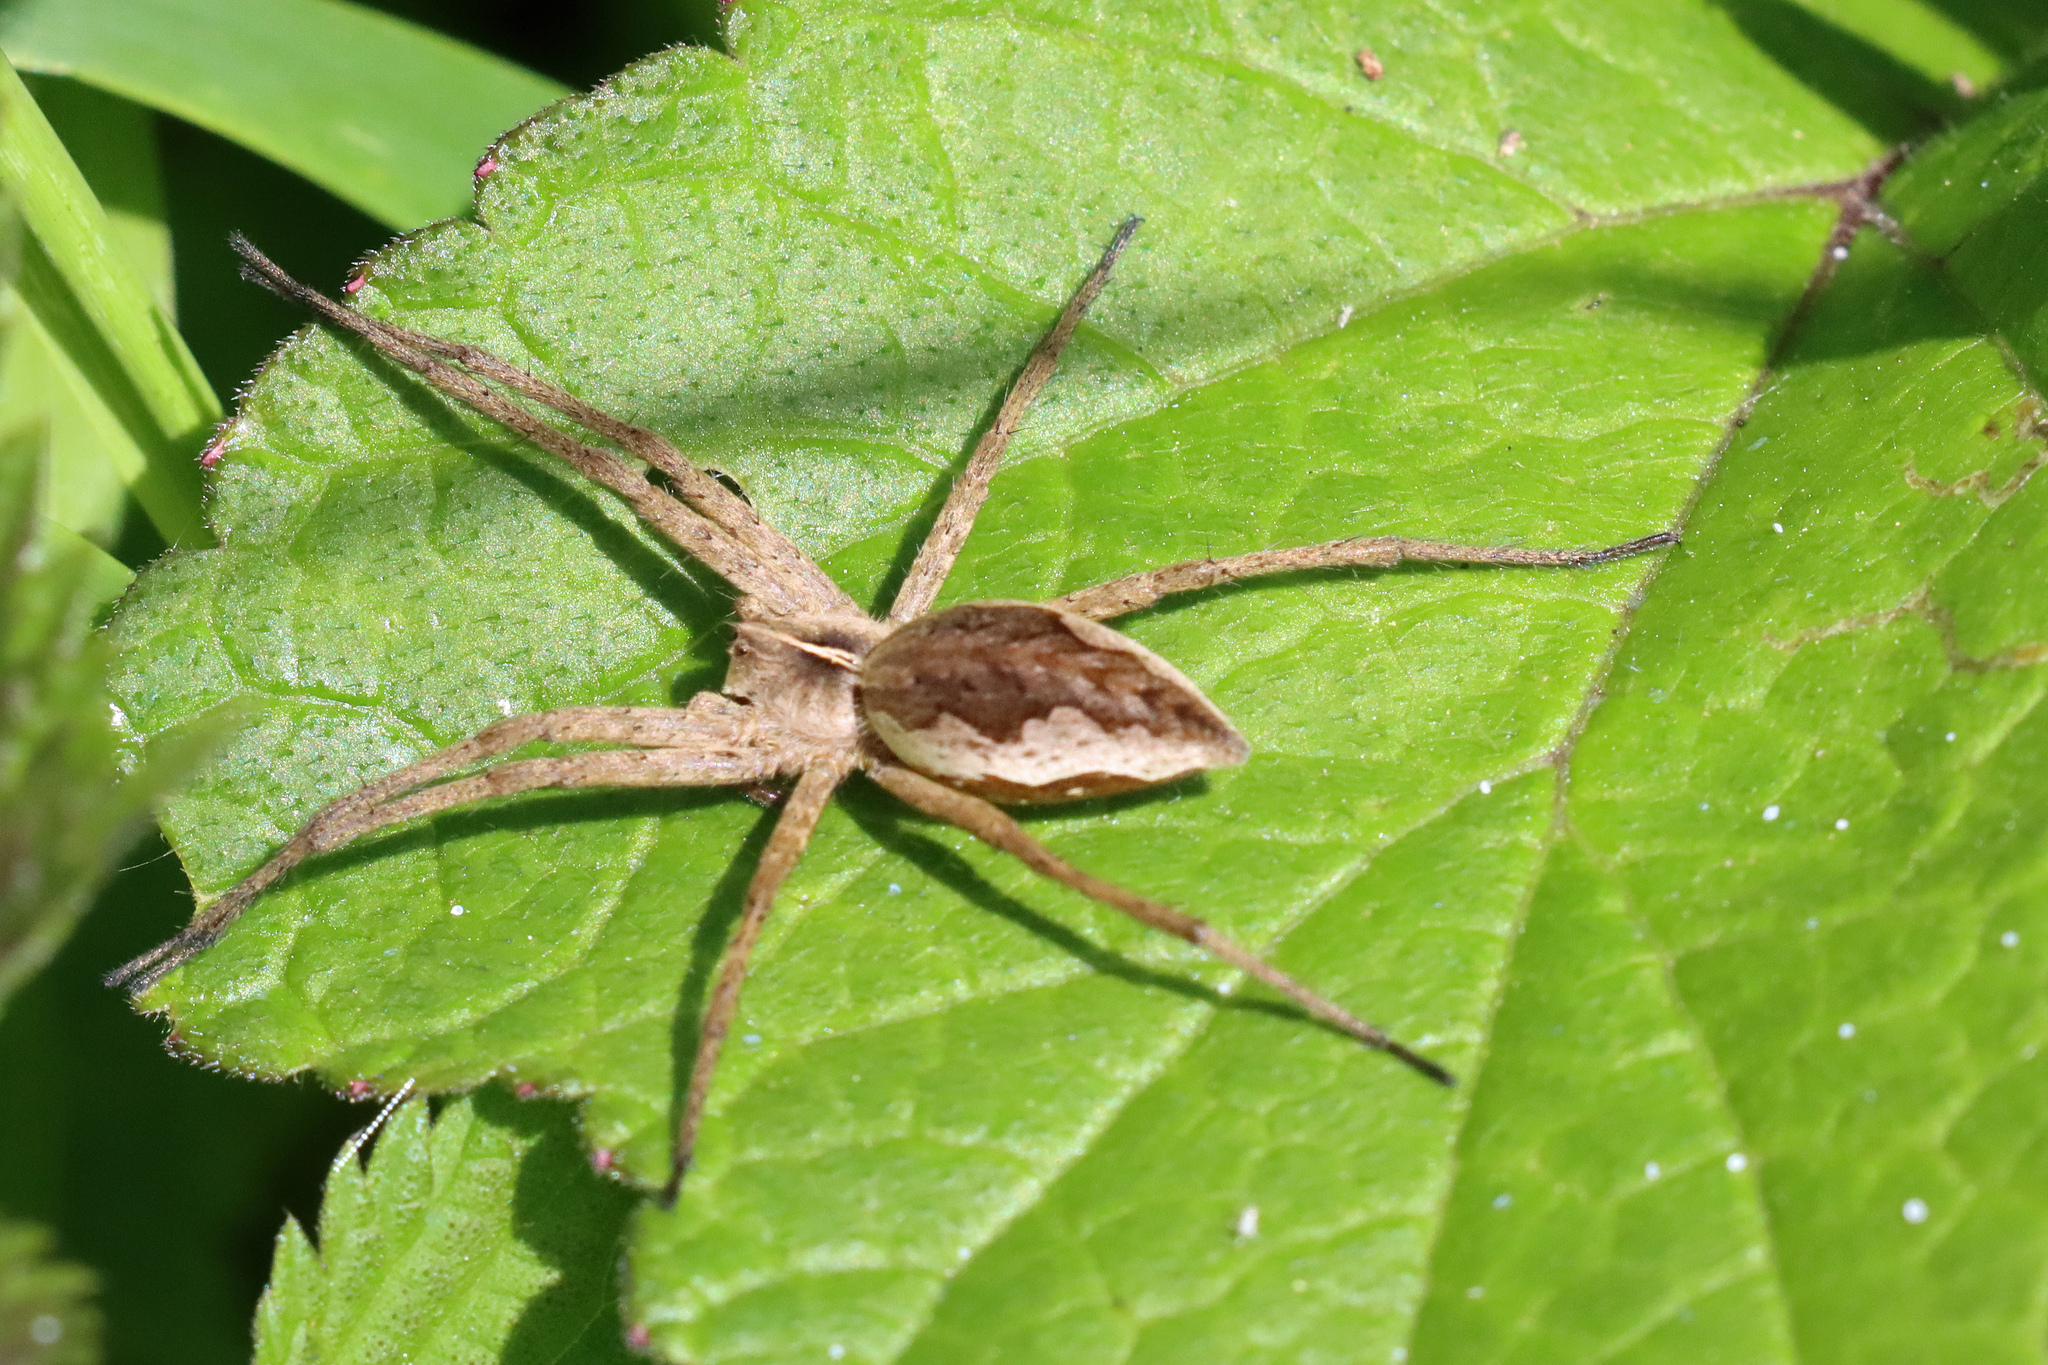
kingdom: Animalia
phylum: Arthropoda
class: Arachnida
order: Araneae
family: Pisauridae
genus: Pisaura
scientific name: Pisaura mirabilis
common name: Tent spider
